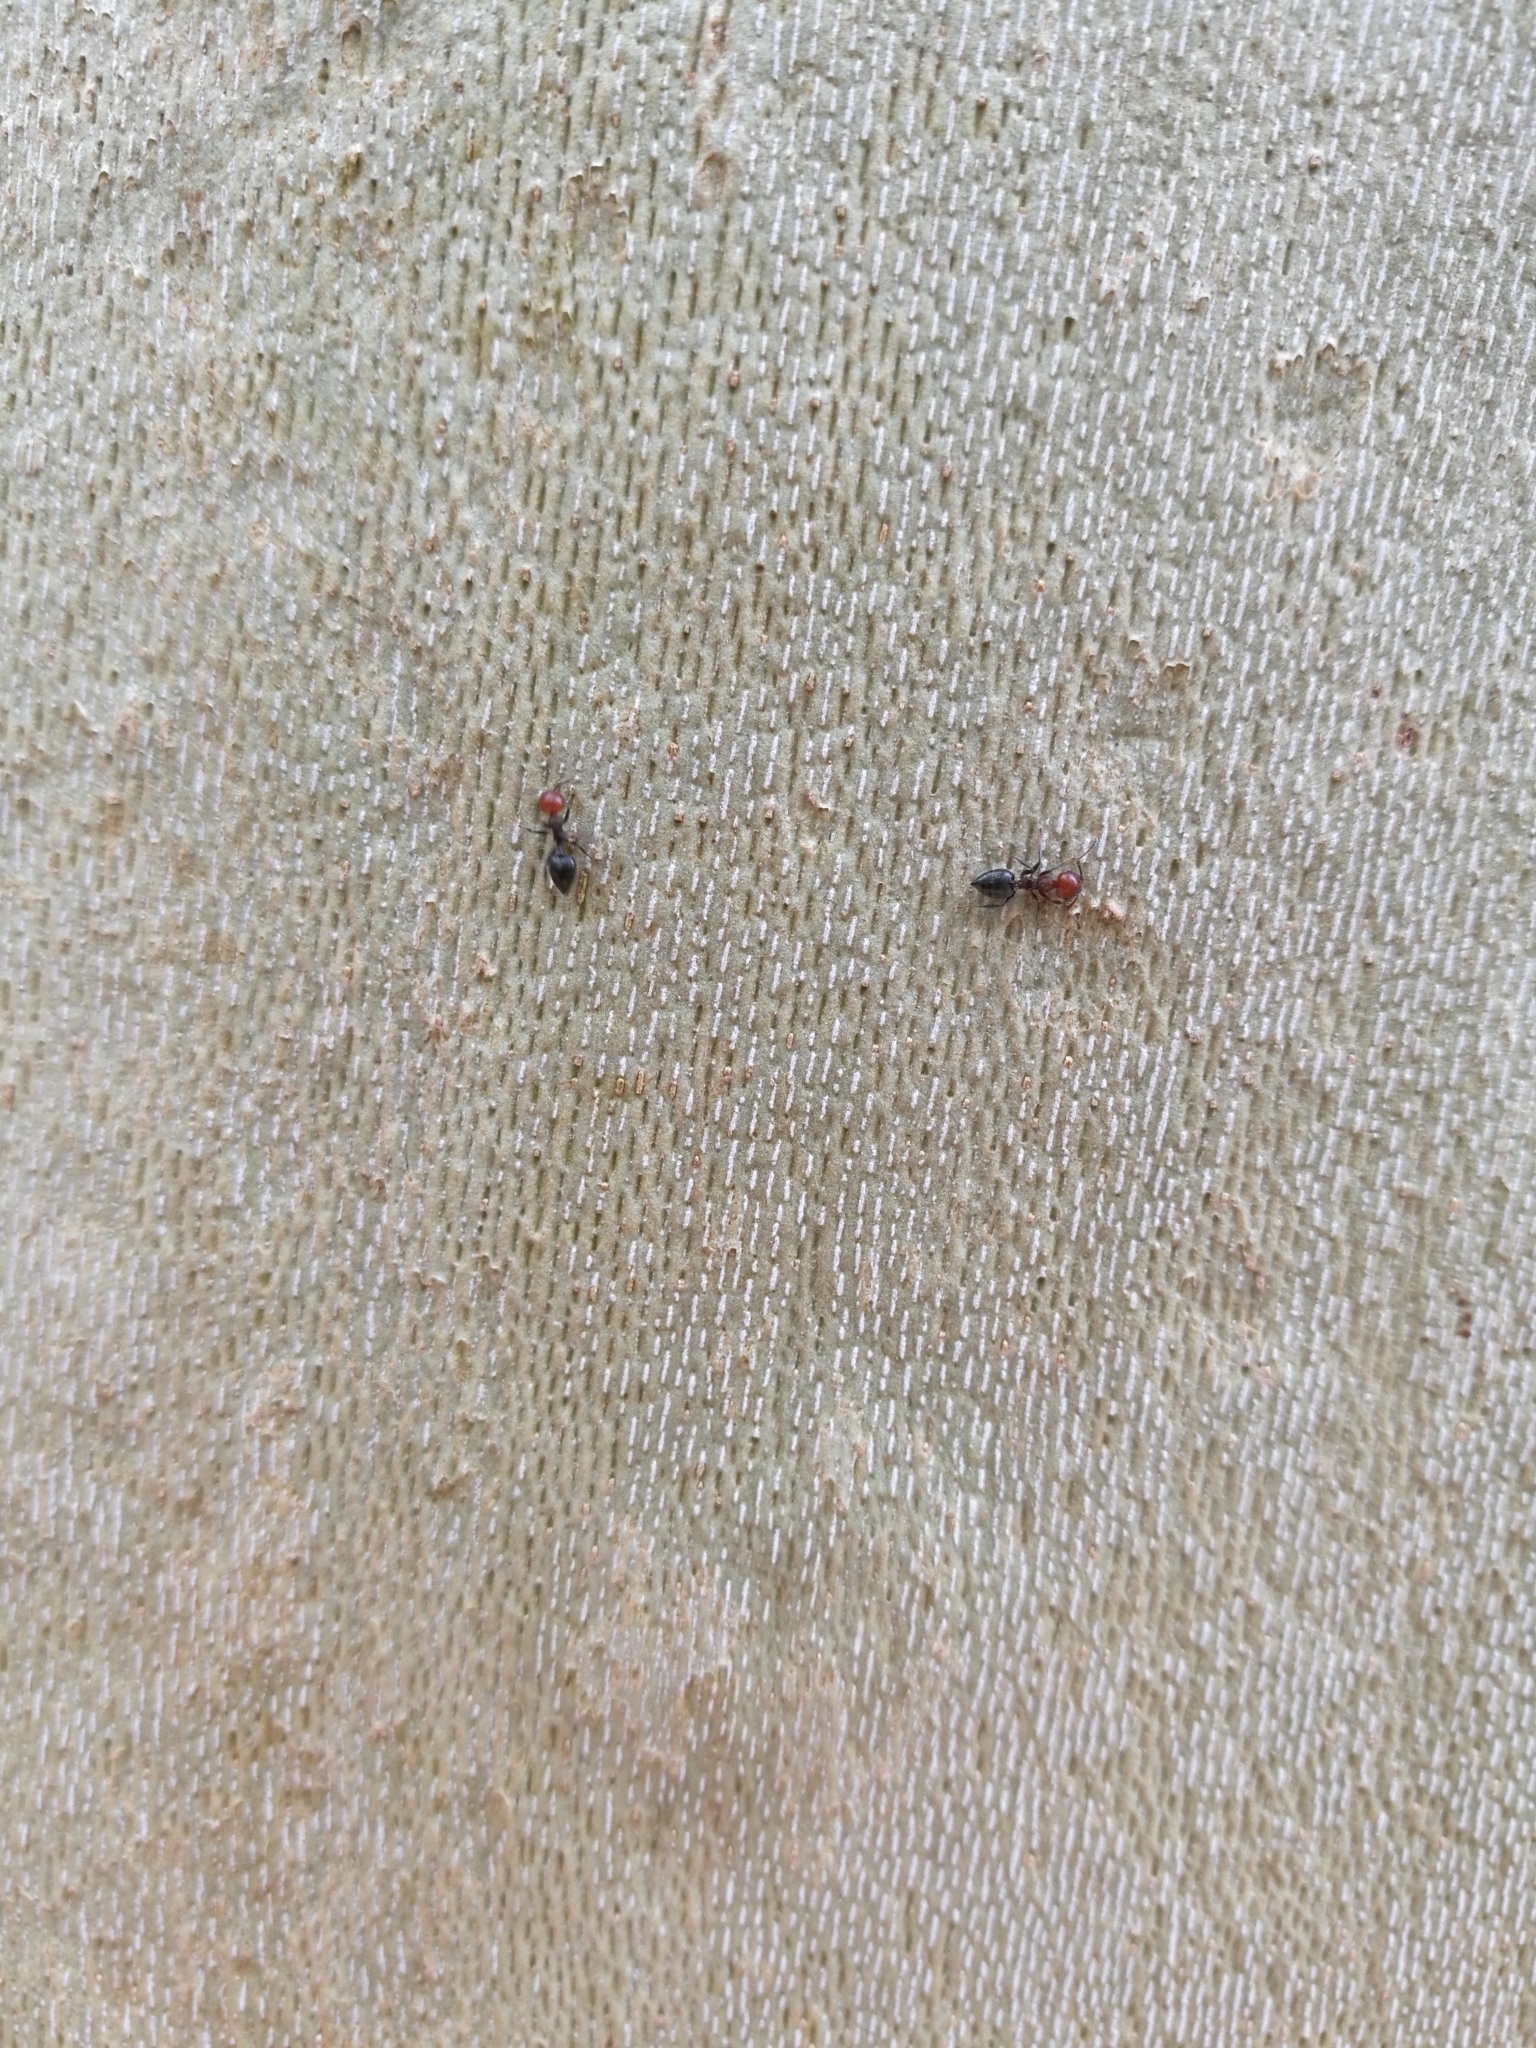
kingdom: Animalia
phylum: Arthropoda
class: Insecta
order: Hymenoptera
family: Formicidae
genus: Crematogaster
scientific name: Crematogaster scutellaris
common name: Fourmi du liège
